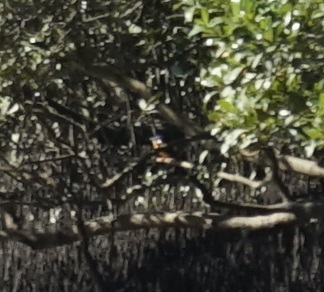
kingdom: Animalia
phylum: Chordata
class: Aves
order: Coraciiformes
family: Alcedinidae
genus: Ceyx
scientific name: Ceyx azureus
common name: Azure kingfisher
